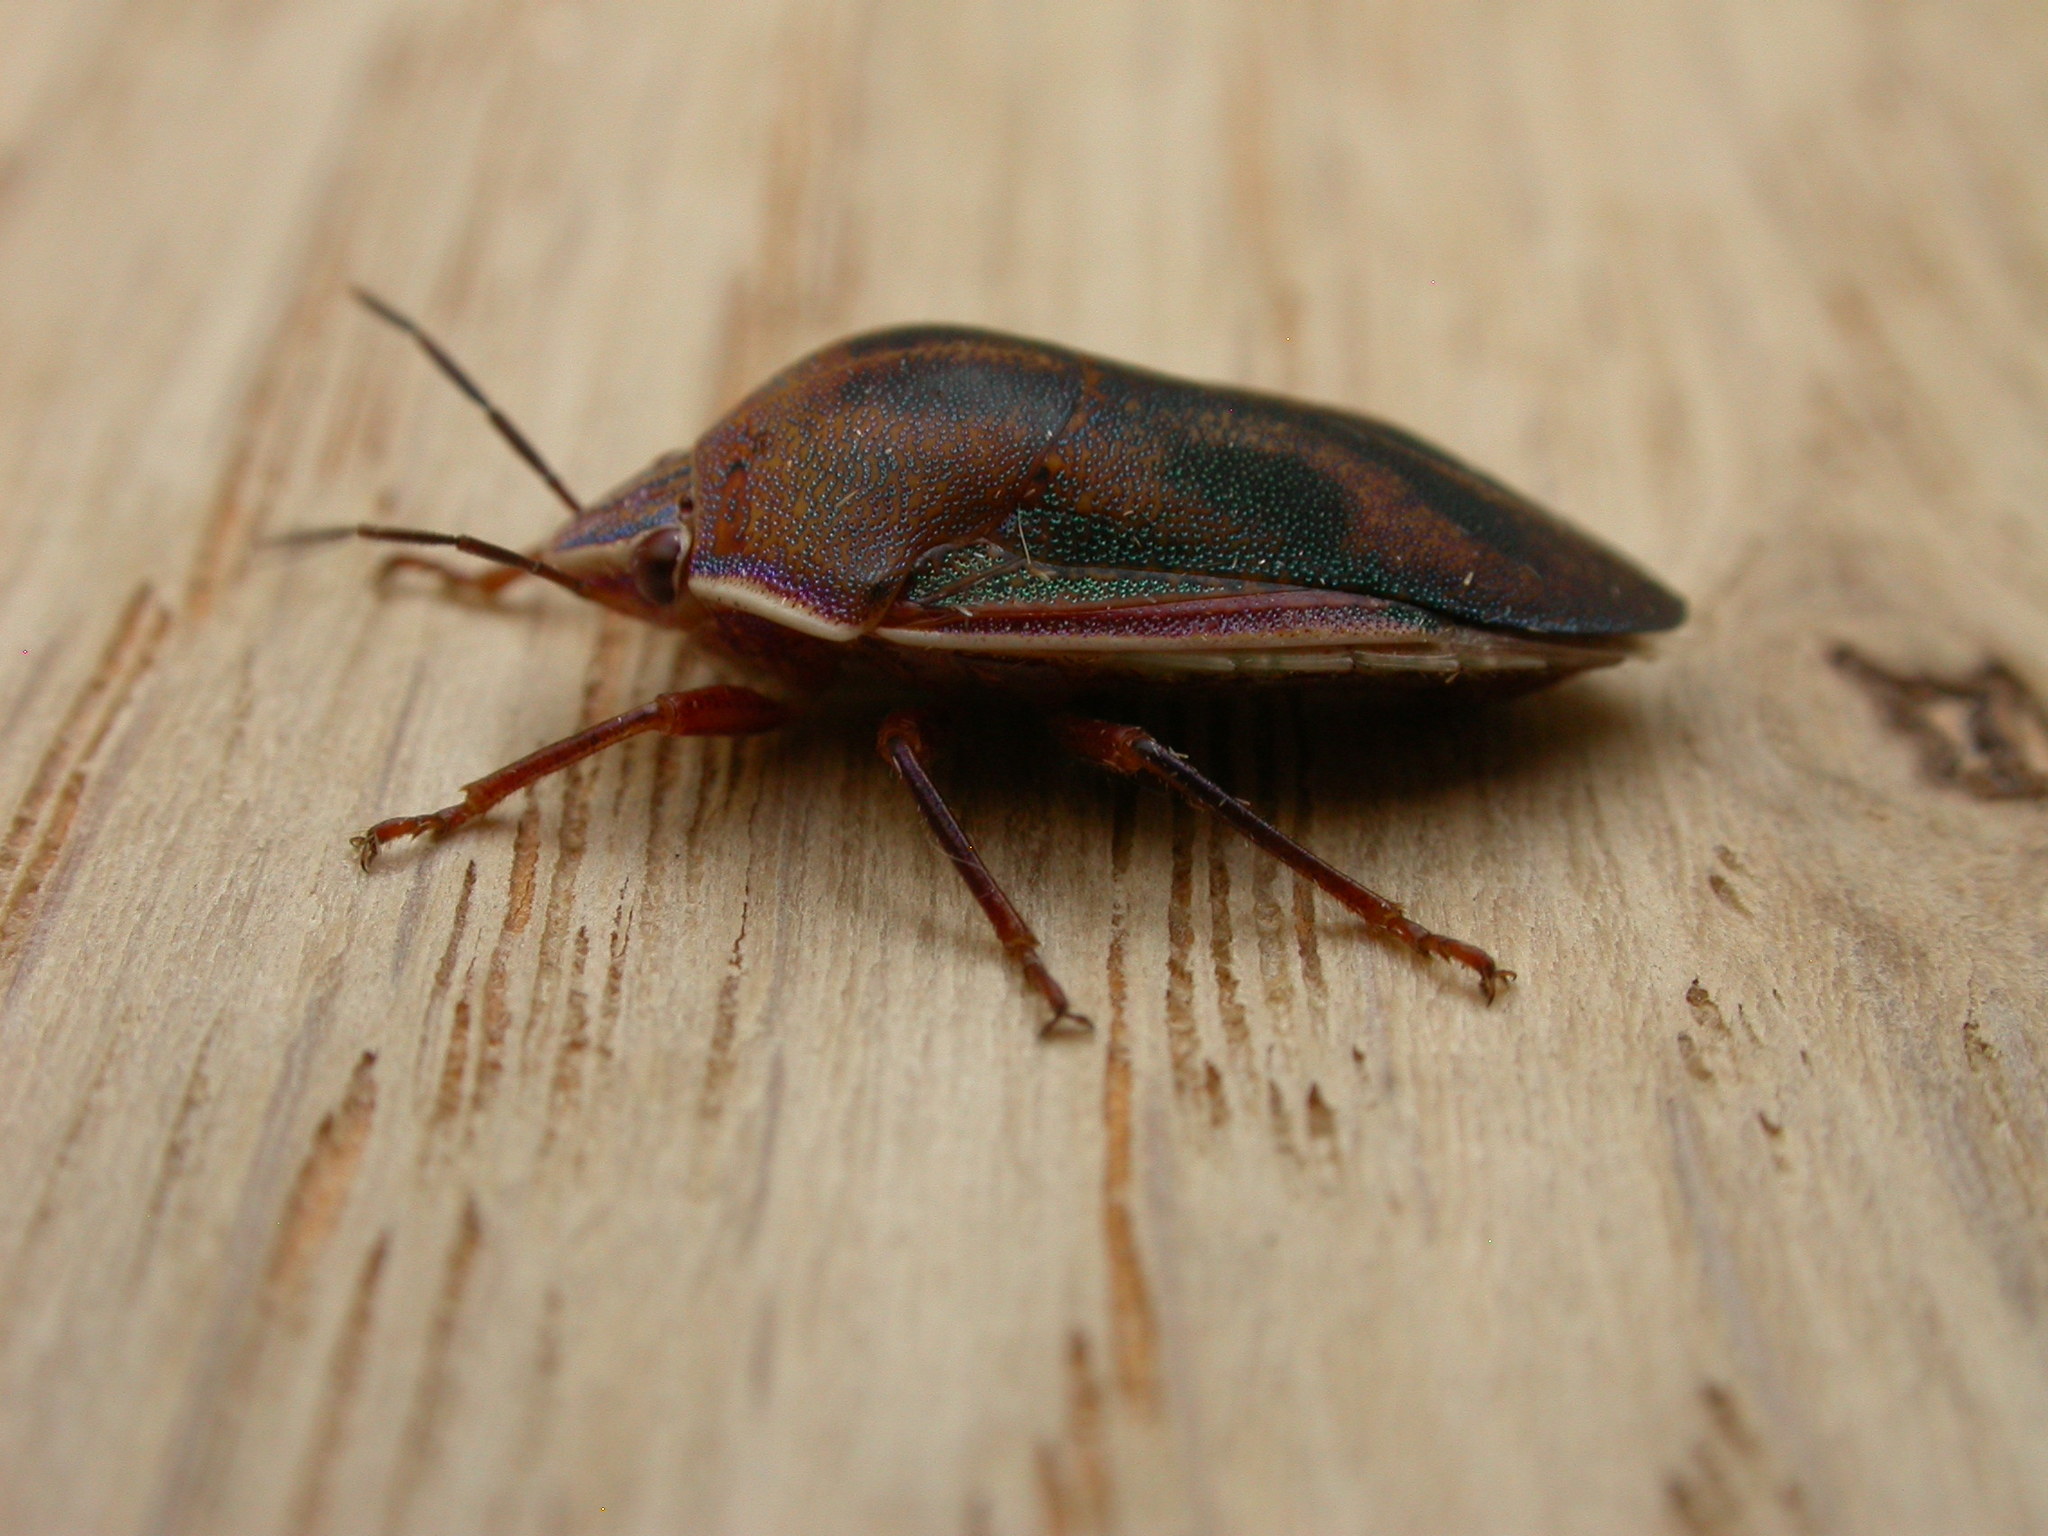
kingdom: Animalia
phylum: Arthropoda
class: Insecta
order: Hemiptera
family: Pentatomidae
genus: Coleotichus
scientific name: Coleotichus costatus
